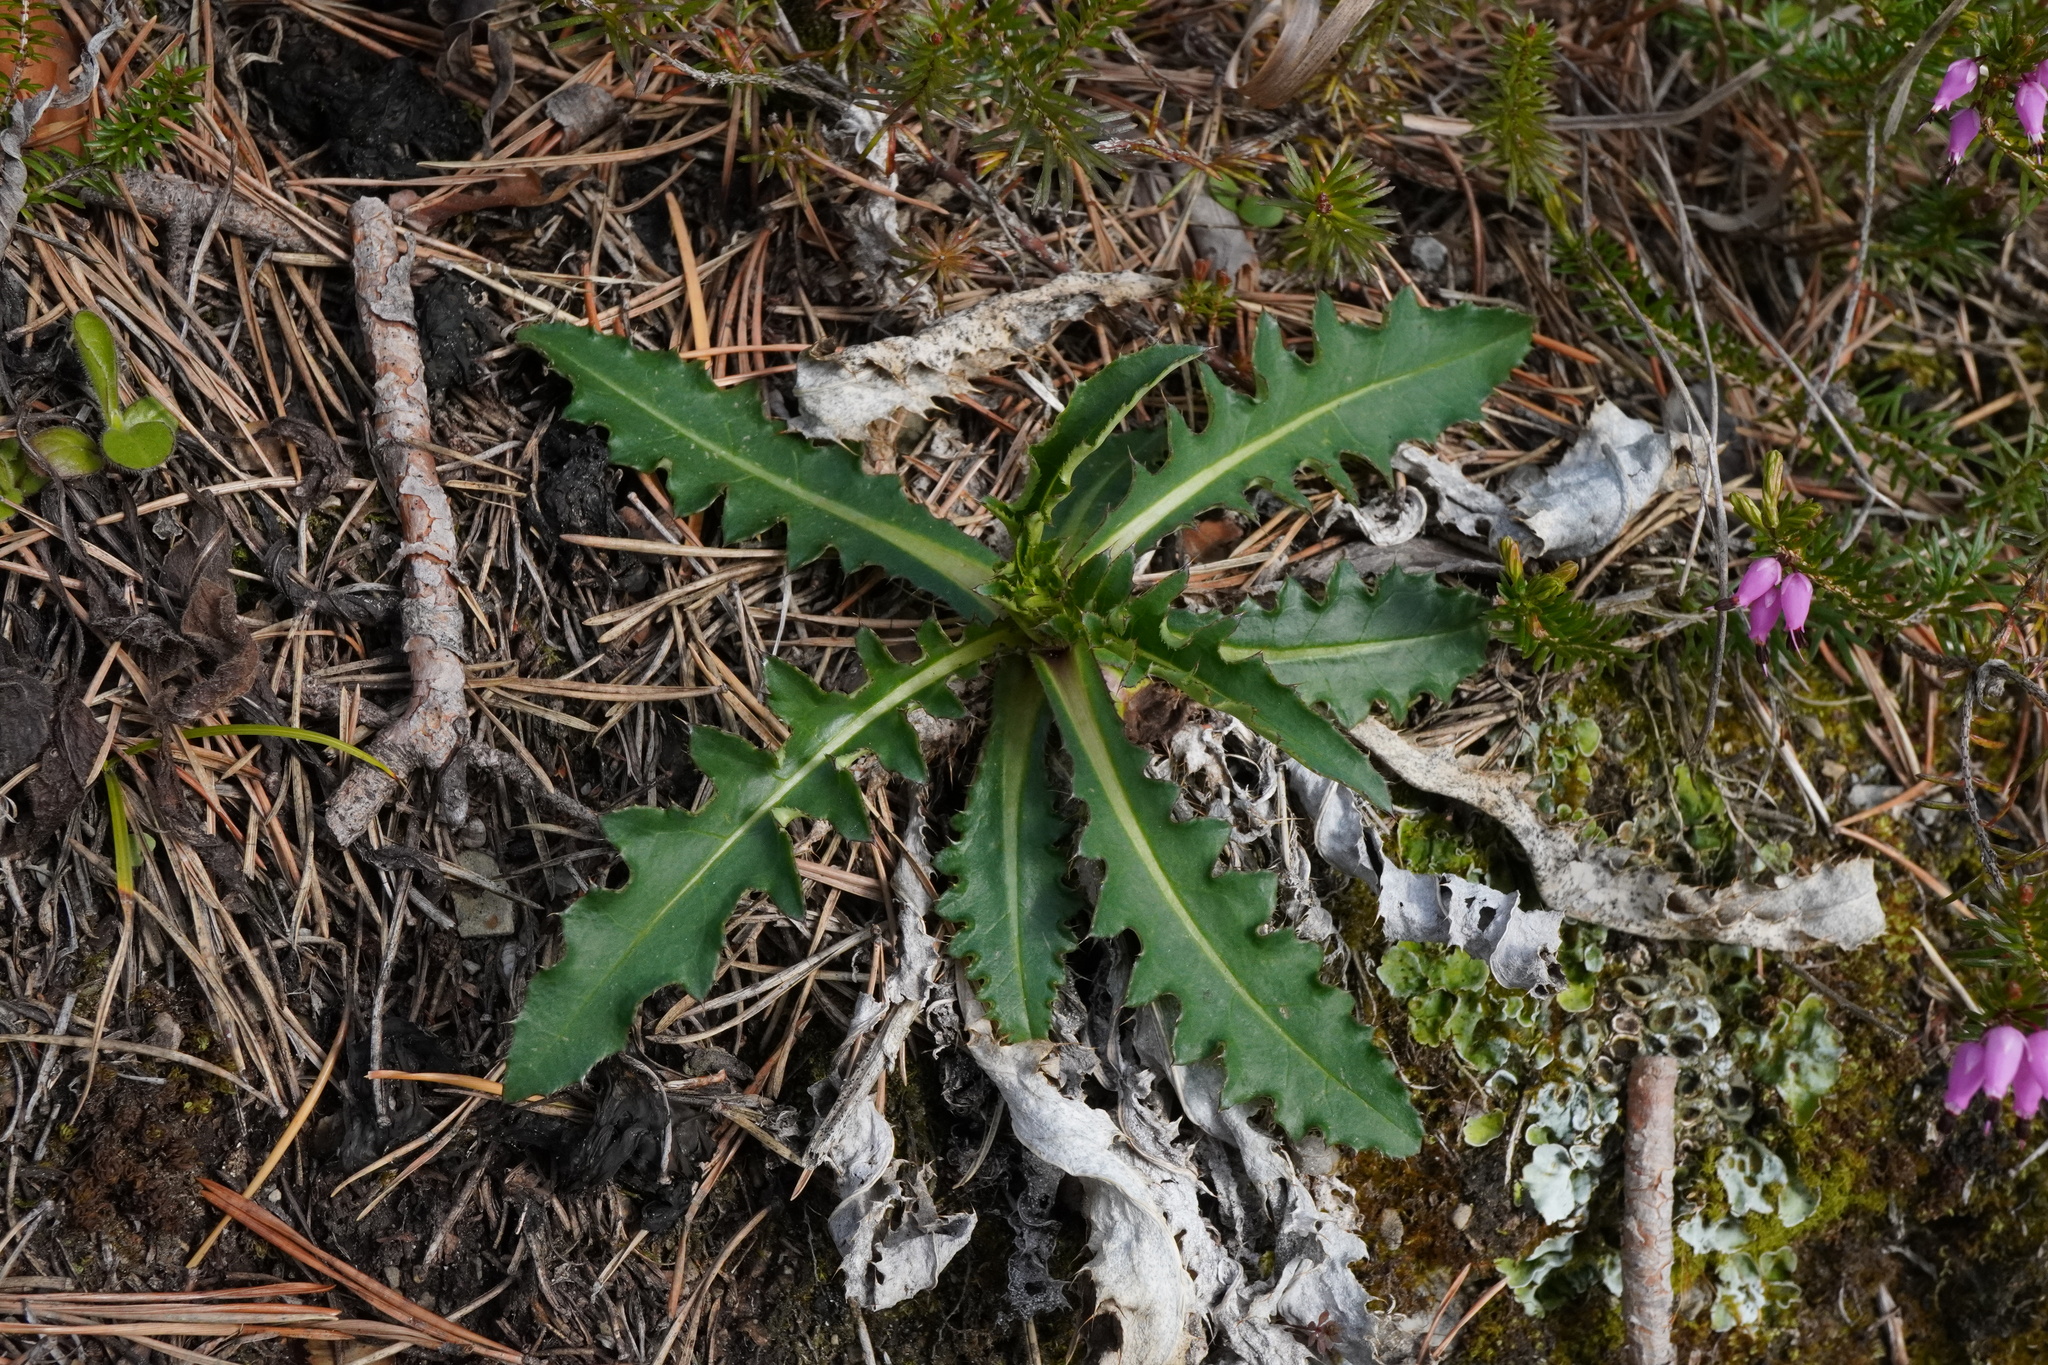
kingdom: Plantae
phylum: Tracheophyta
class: Magnoliopsida
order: Asterales
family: Asteraceae
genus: Carduus
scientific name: Carduus defloratus
